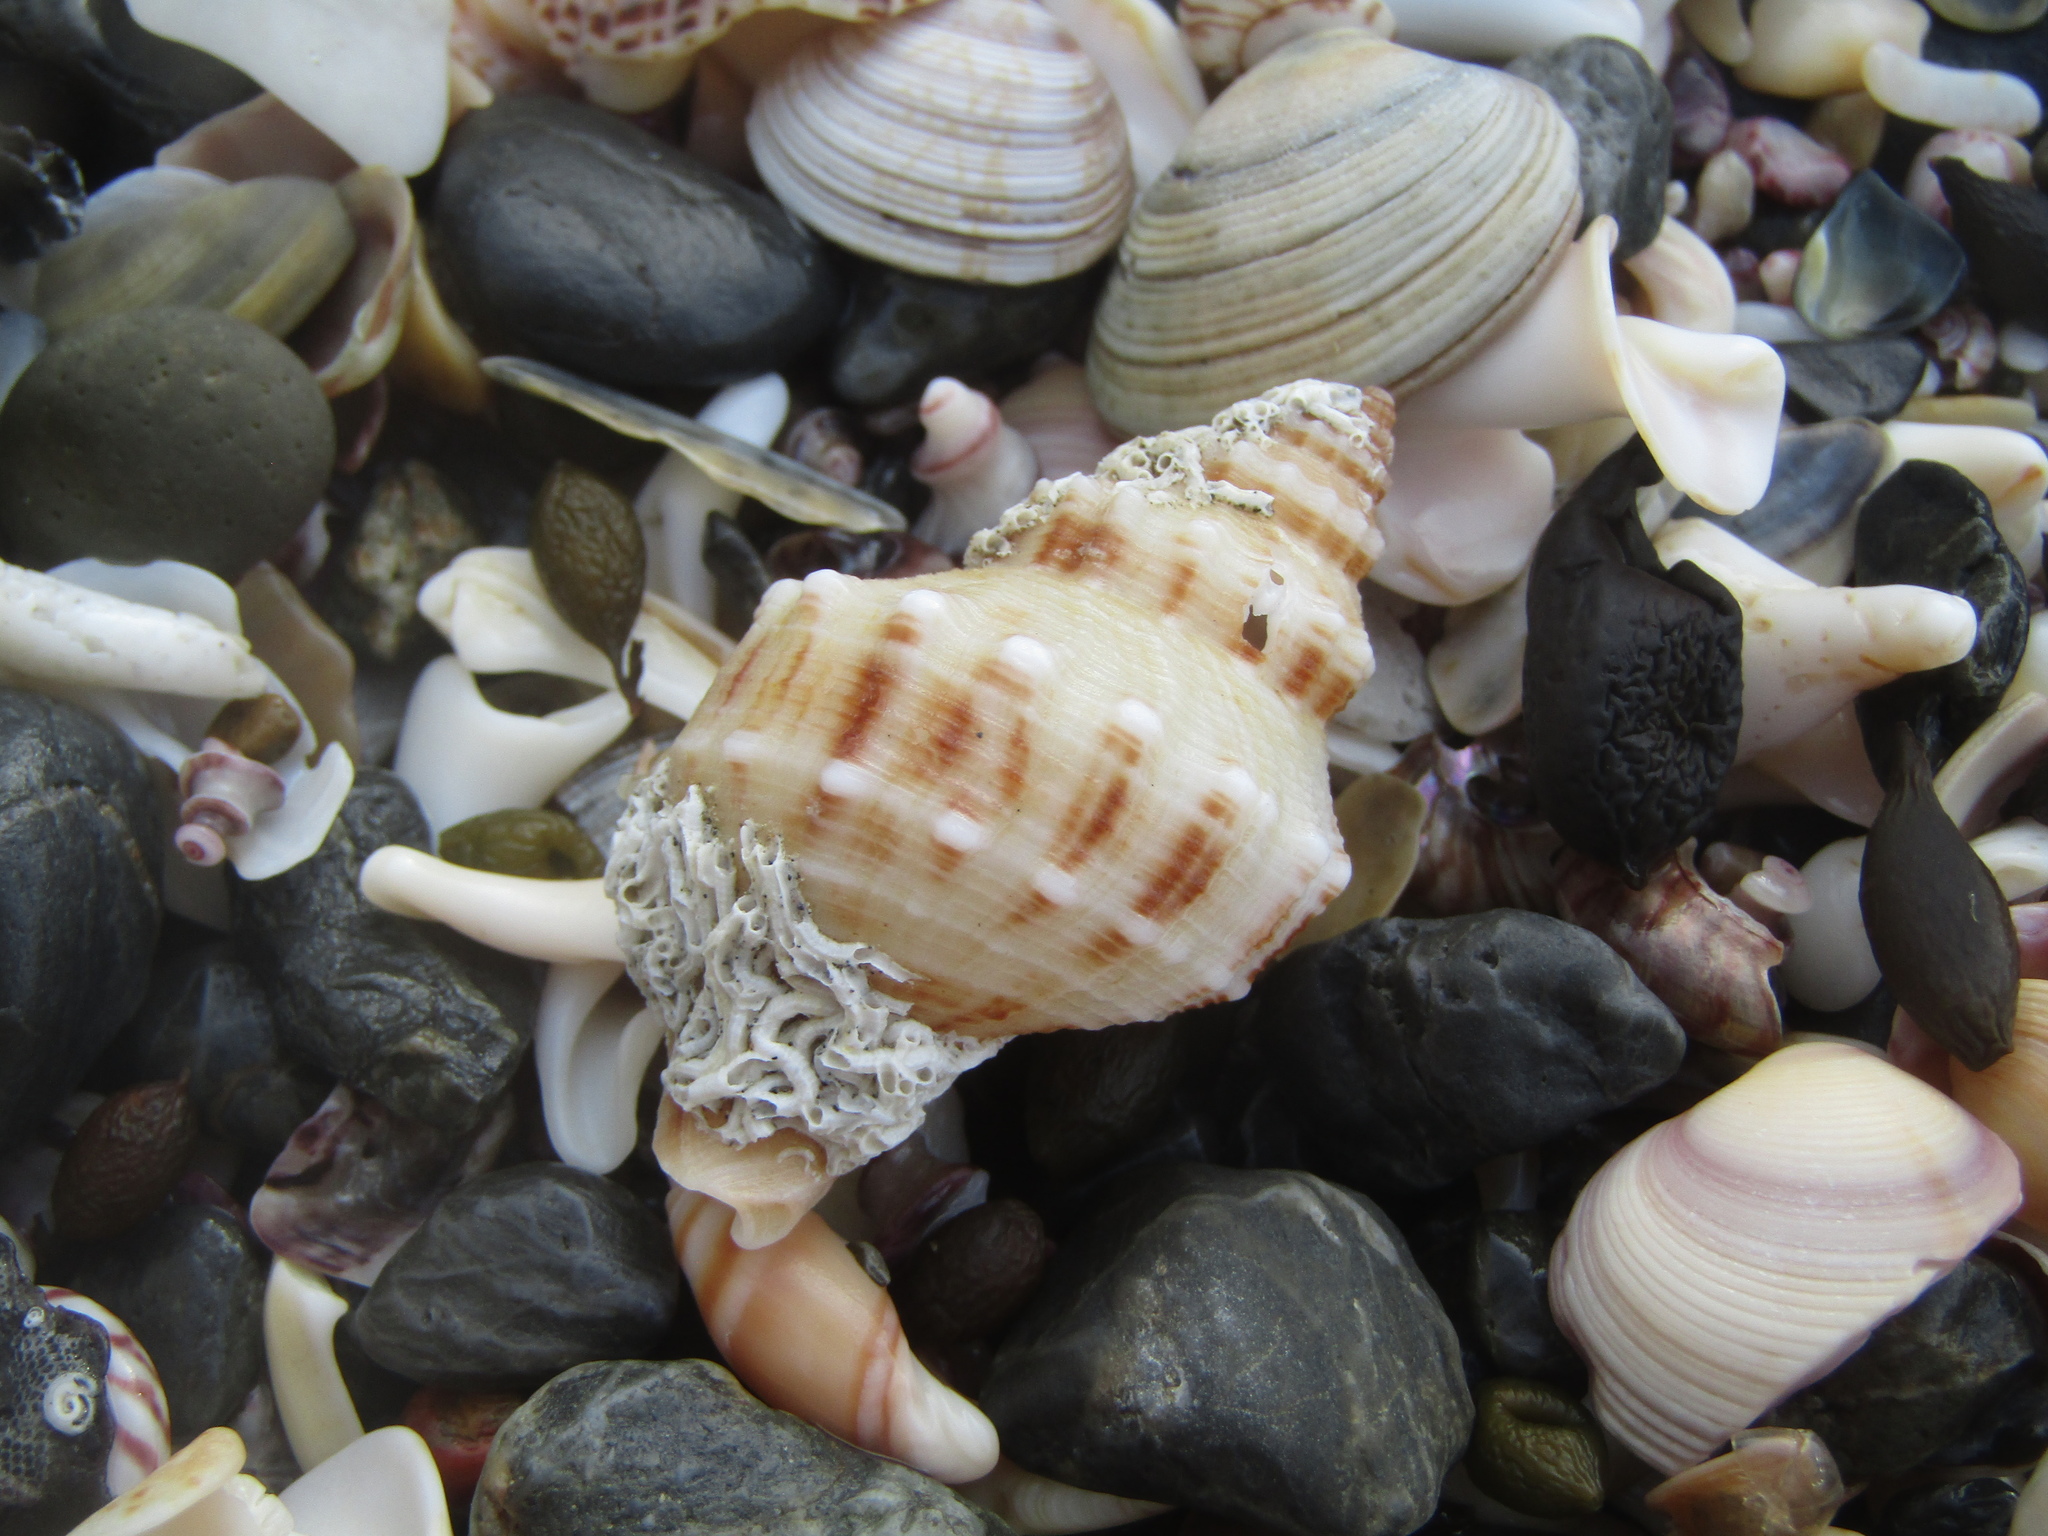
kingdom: Animalia
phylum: Mollusca
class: Gastropoda
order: Neogastropoda
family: Prosiphonidae
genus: Austrofusus
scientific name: Austrofusus glans
